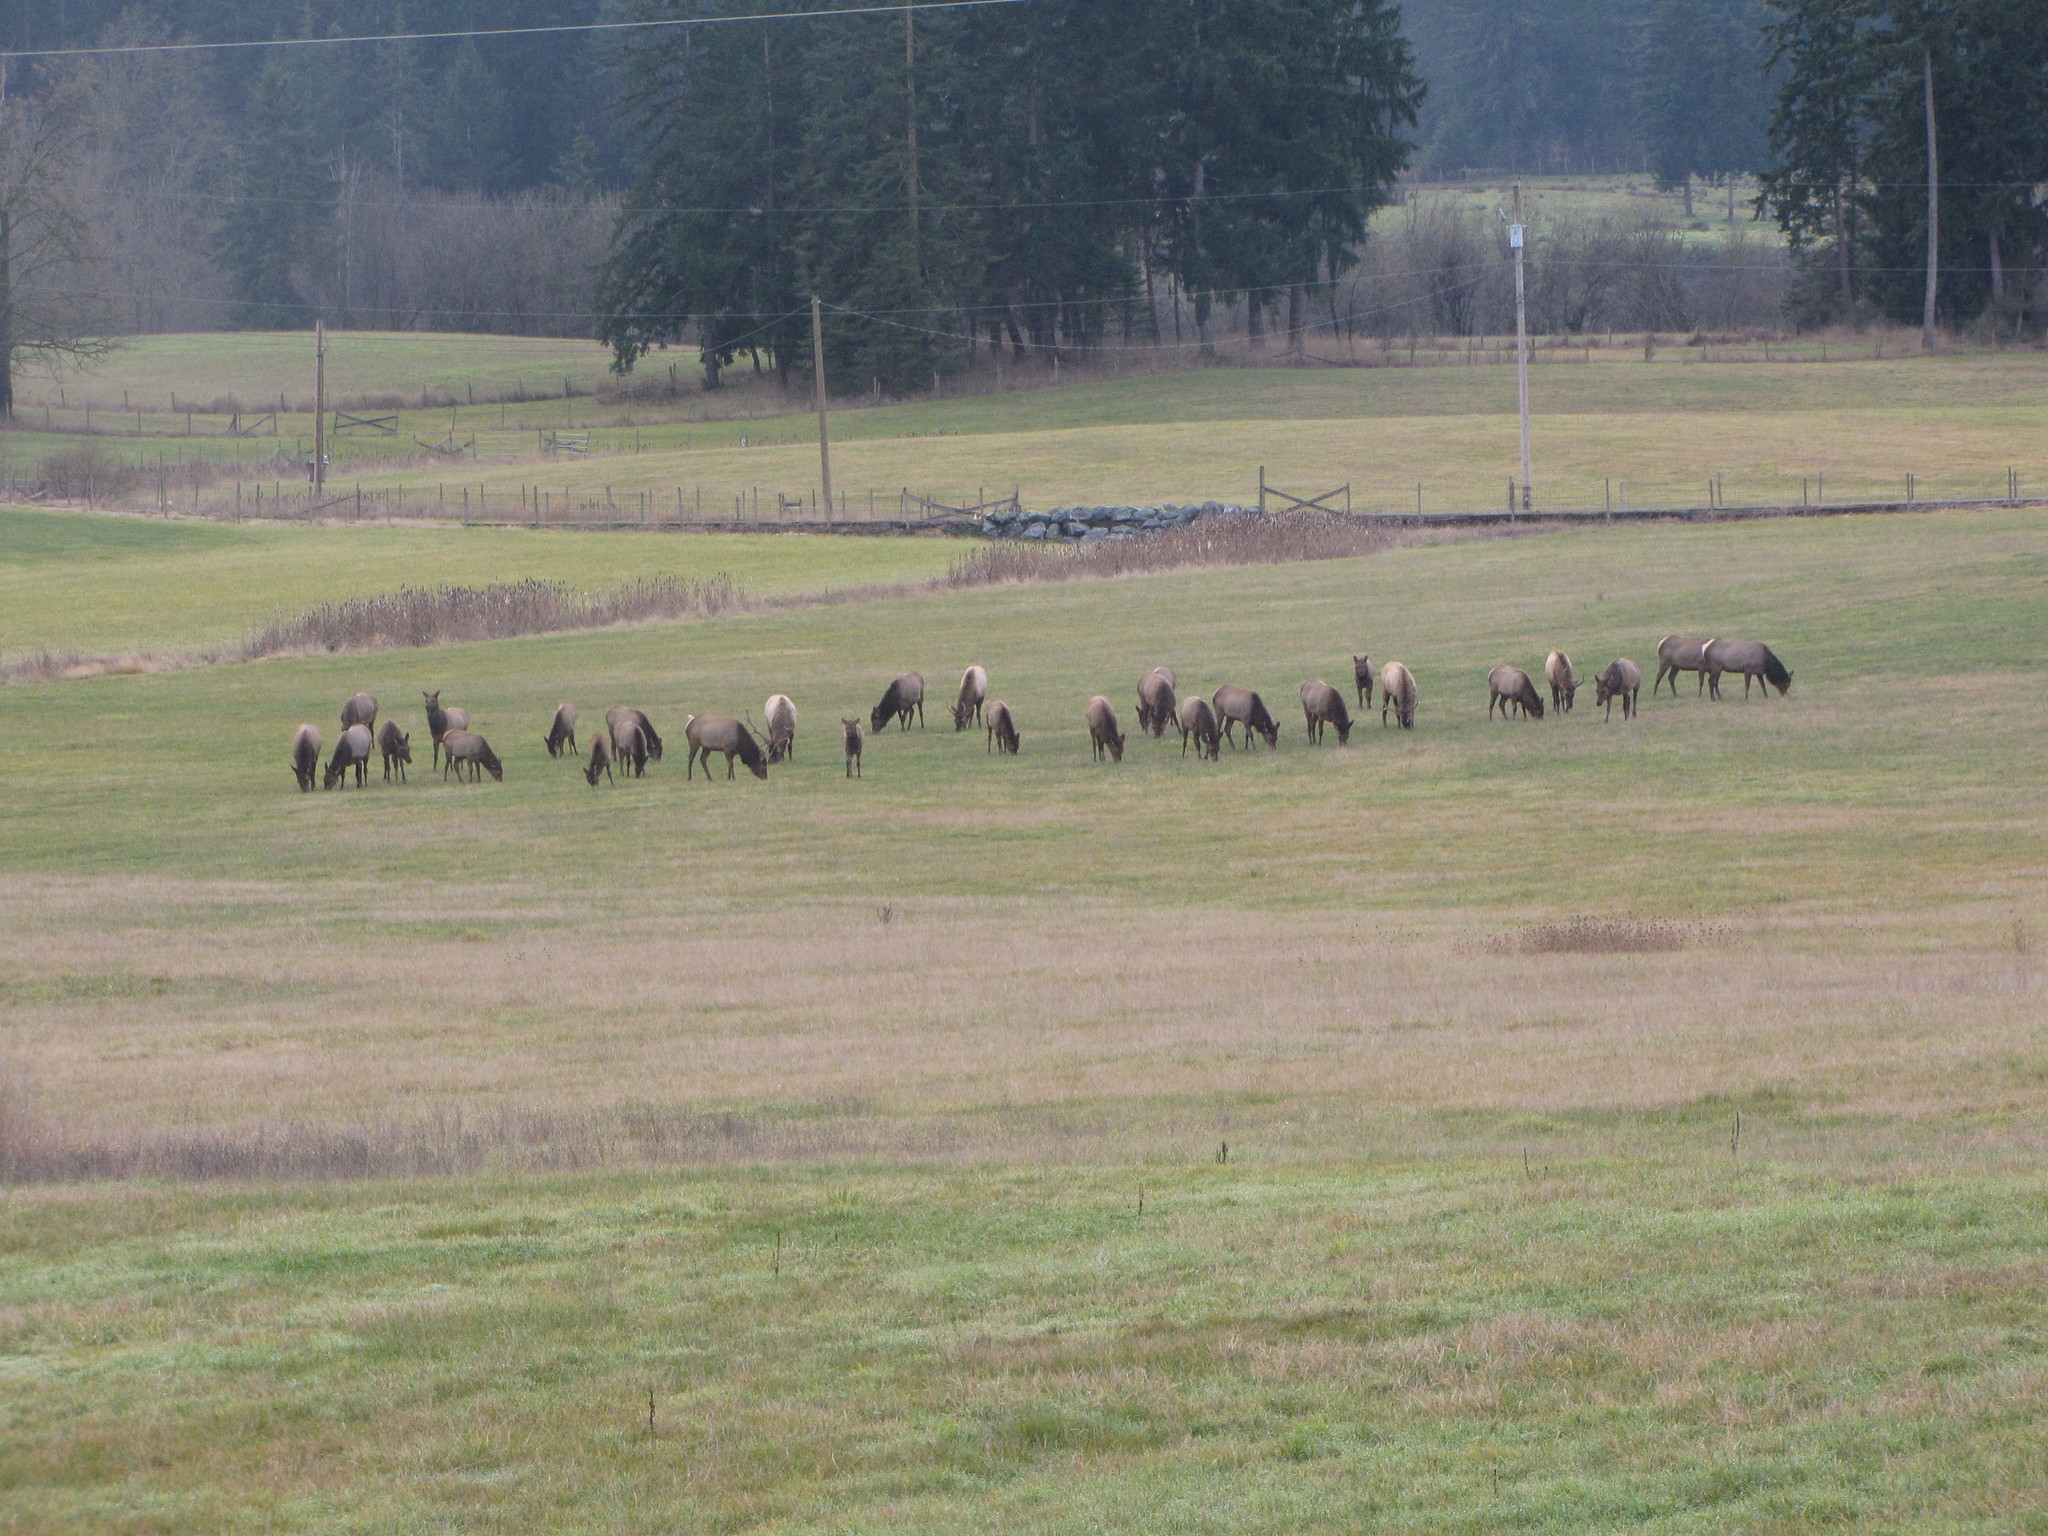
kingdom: Animalia
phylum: Chordata
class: Mammalia
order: Artiodactyla
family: Cervidae
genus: Cervus
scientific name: Cervus elaphus
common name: Red deer
